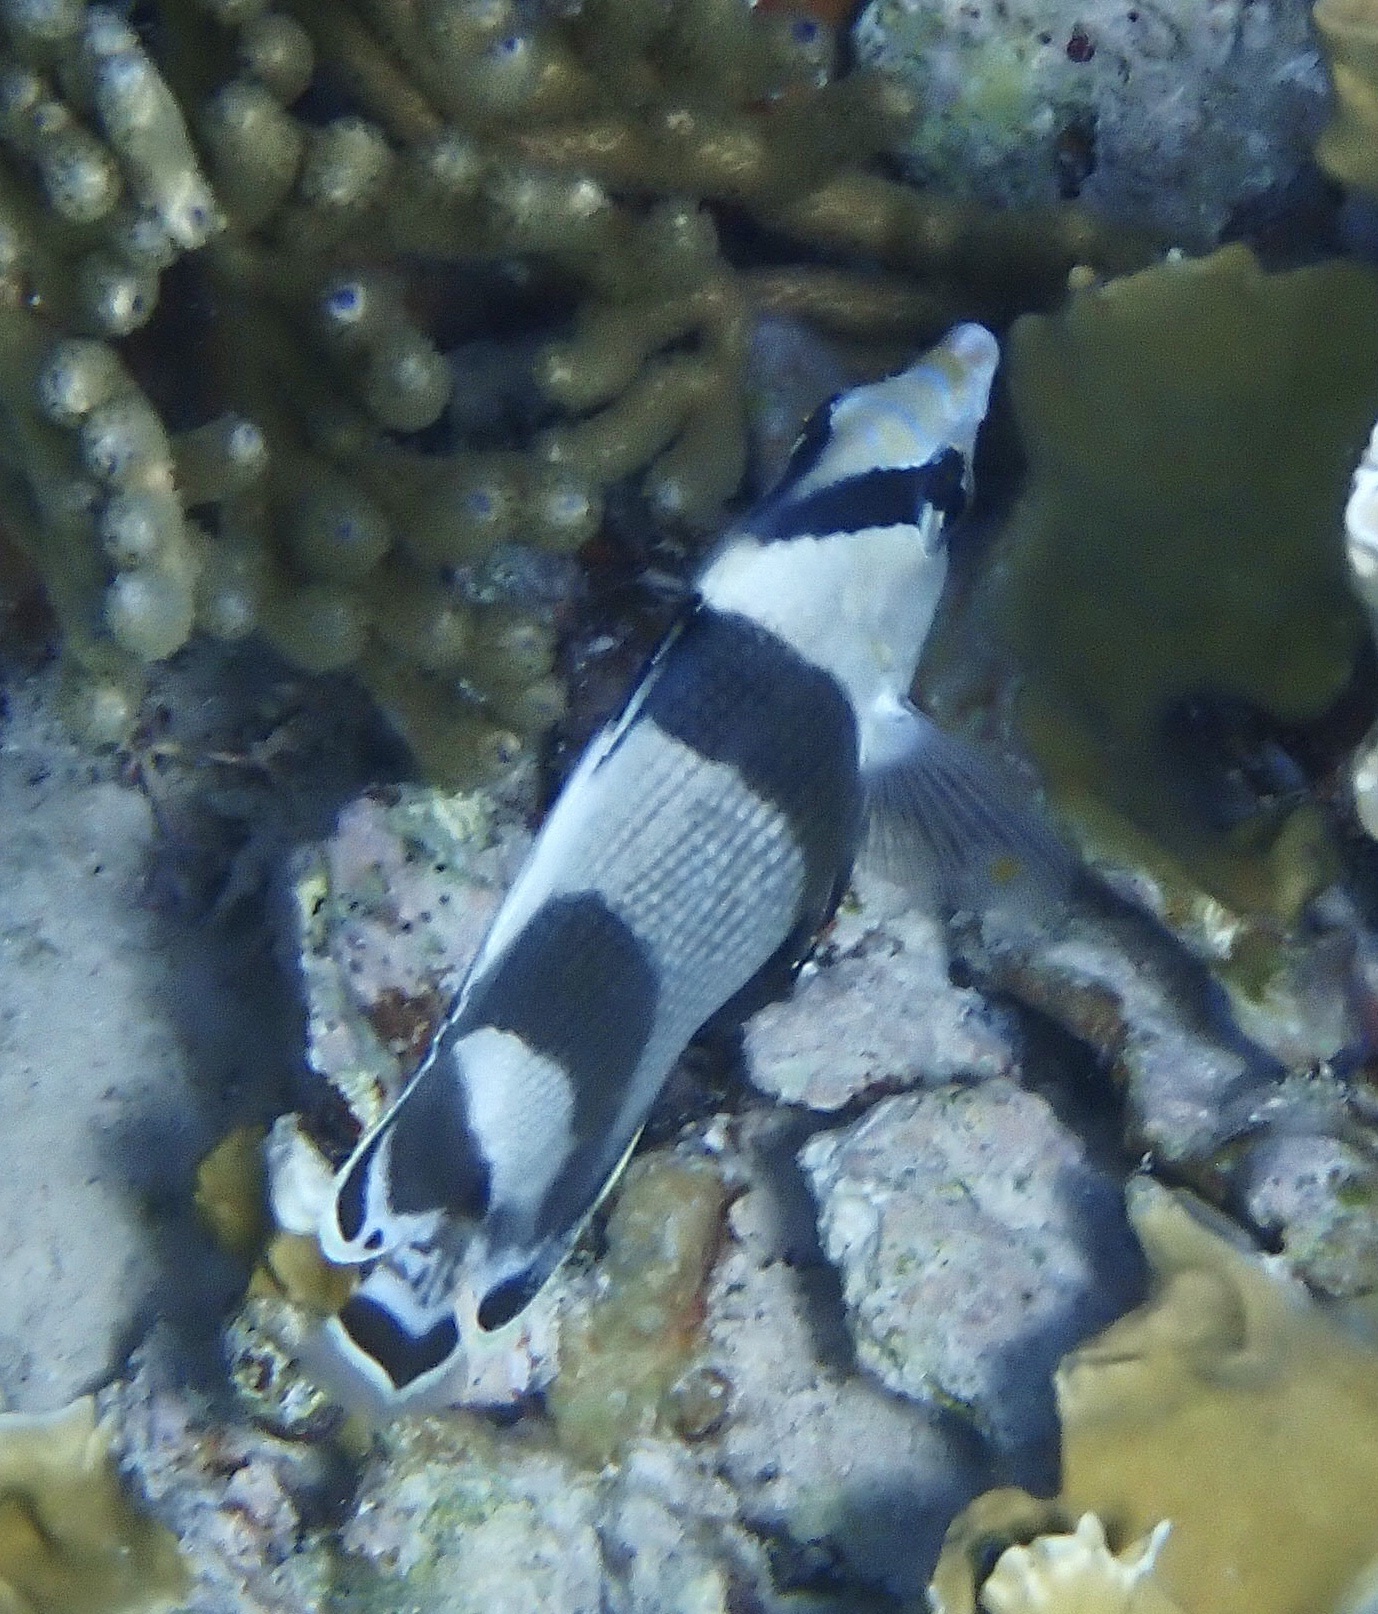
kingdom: Animalia
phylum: Chordata
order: Perciformes
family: Chaetodontidae
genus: Chaetodon
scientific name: Chaetodon striatus
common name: Banded butterflyfish
